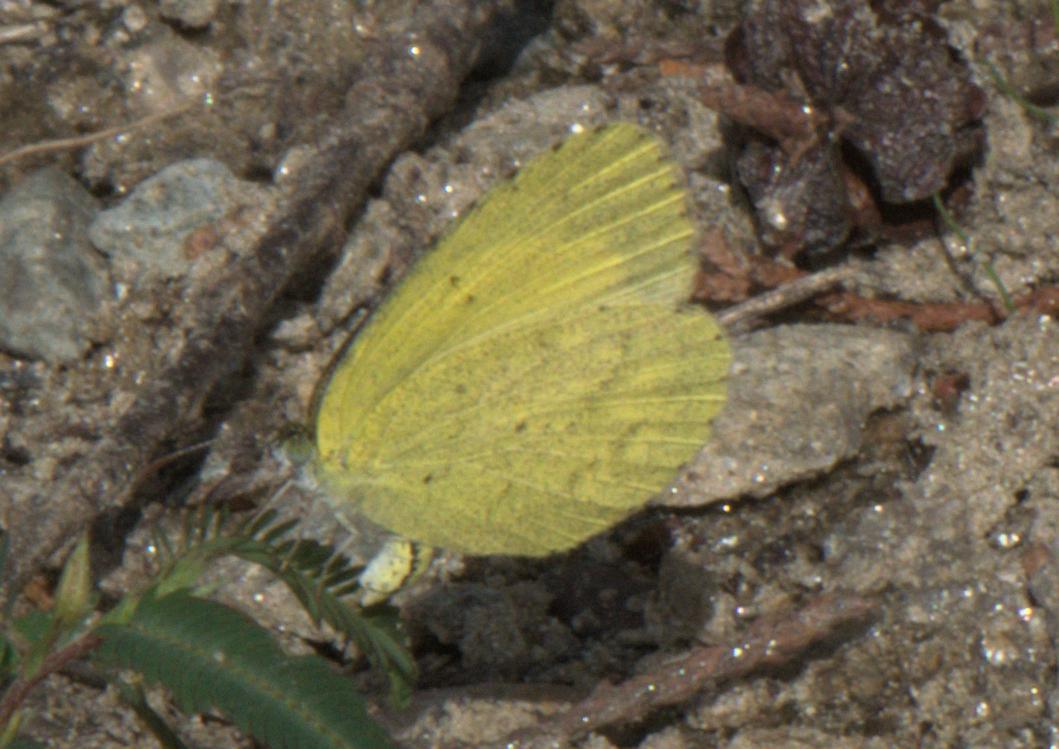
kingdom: Animalia
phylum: Arthropoda
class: Insecta
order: Lepidoptera
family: Pieridae
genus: Eurema
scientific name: Eurema brigitta
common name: Small grass yellow
